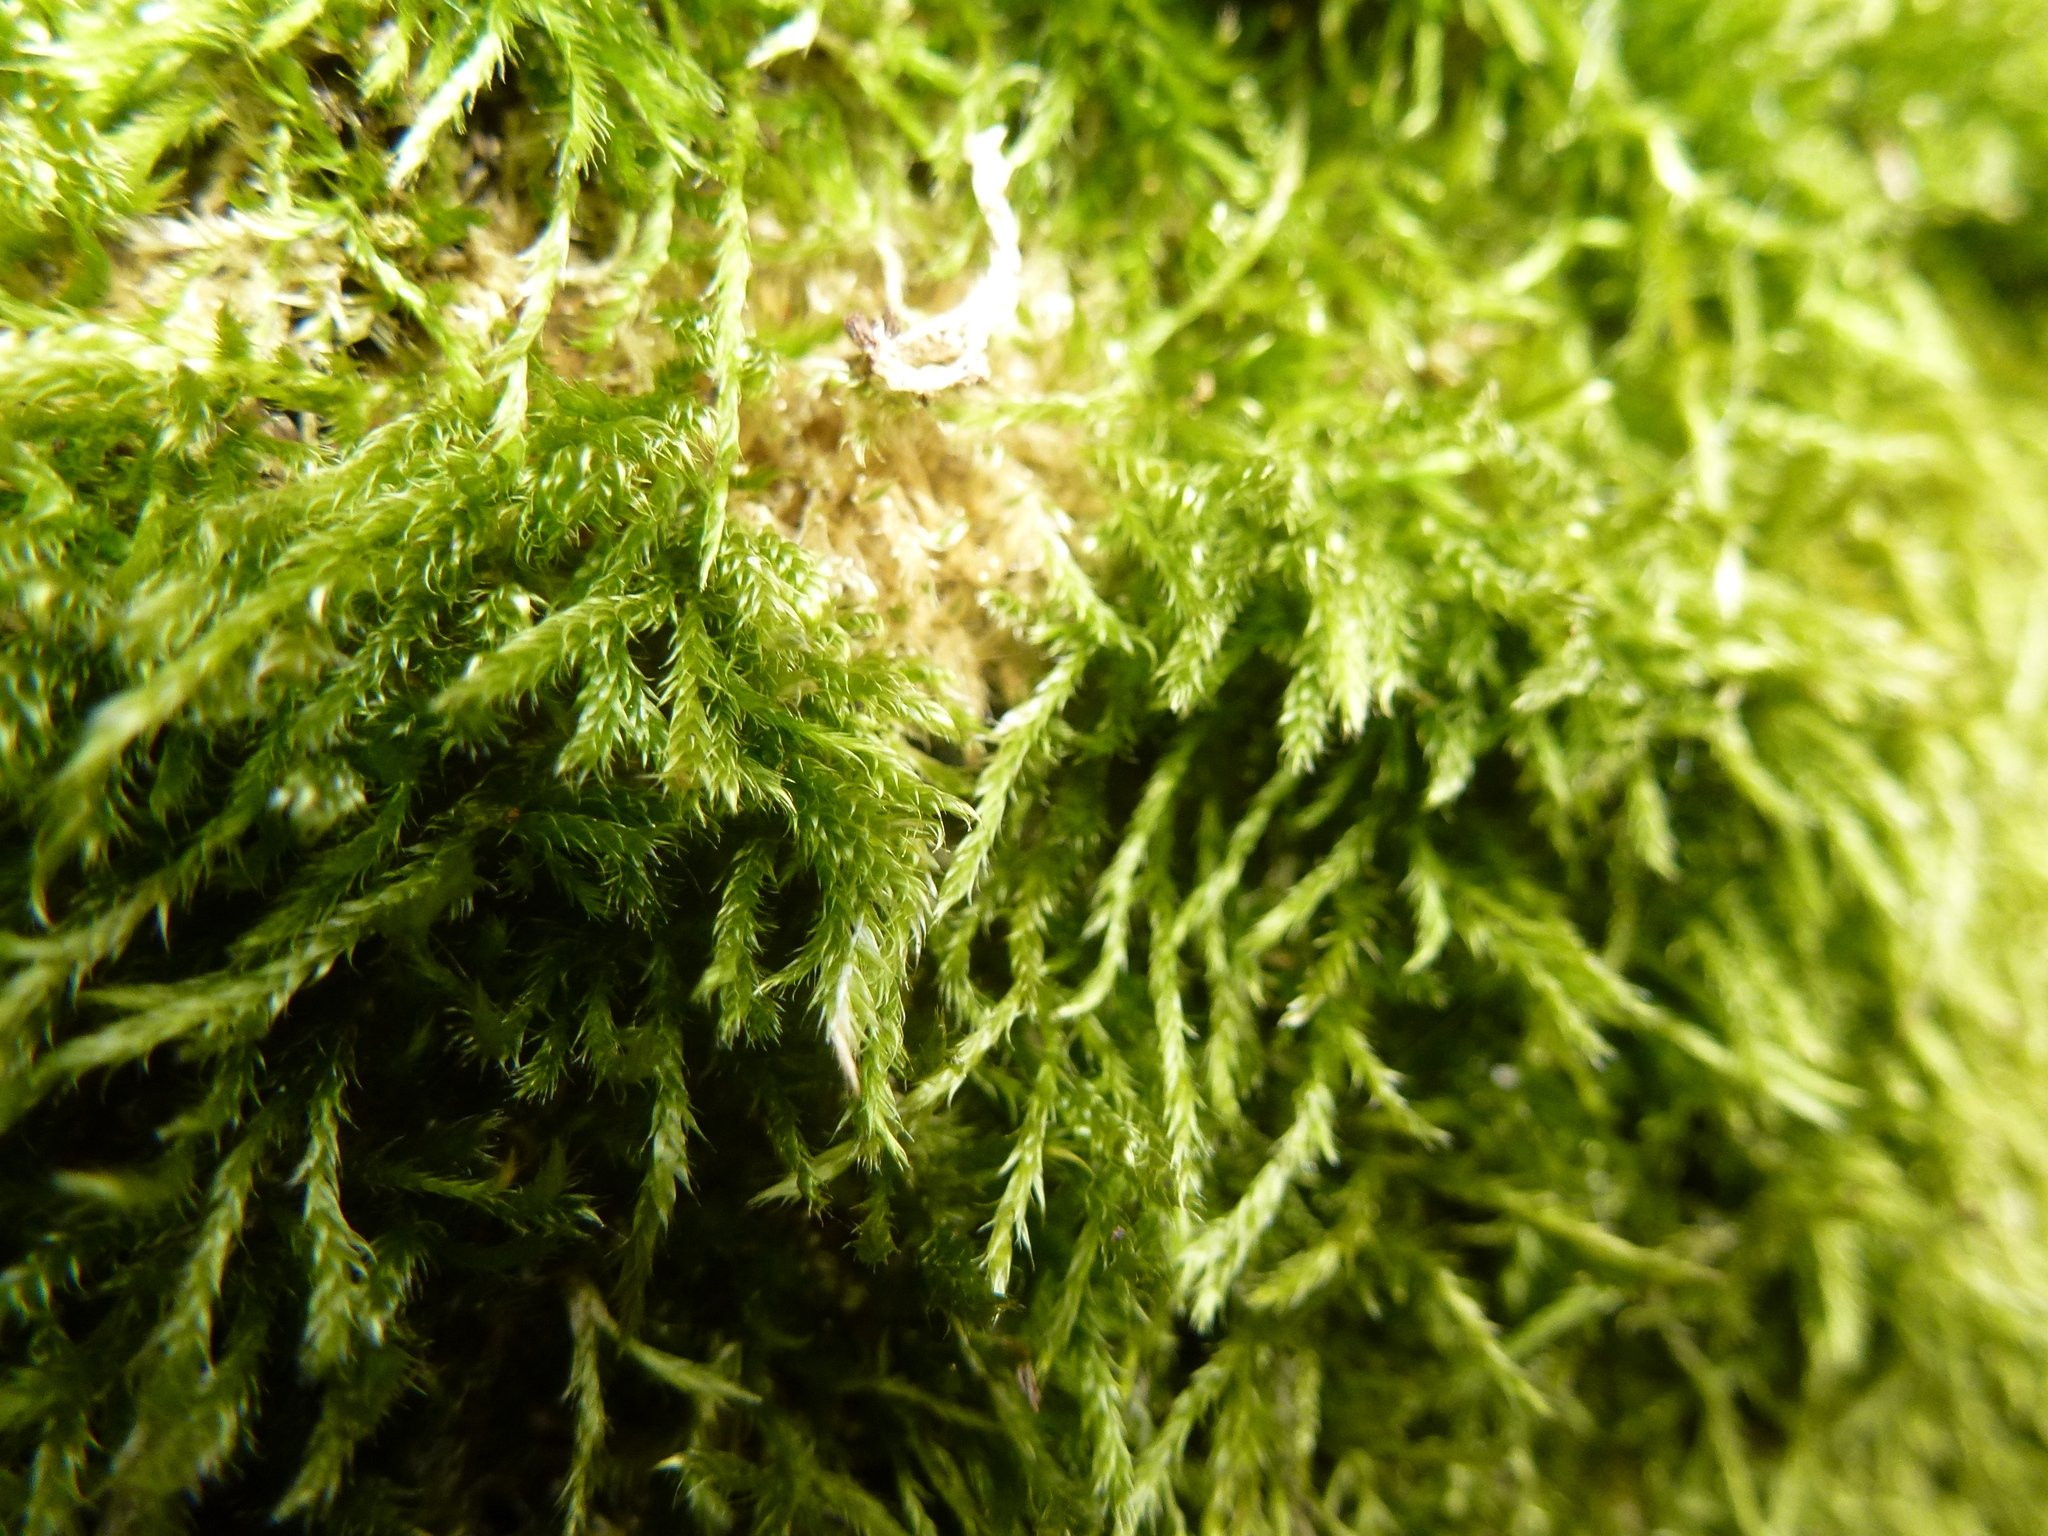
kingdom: Plantae
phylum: Bryophyta
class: Bryopsida
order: Hypnales
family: Hypnaceae
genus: Hypnum
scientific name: Hypnum cupressiforme
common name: Cypress-leaved plait-moss
